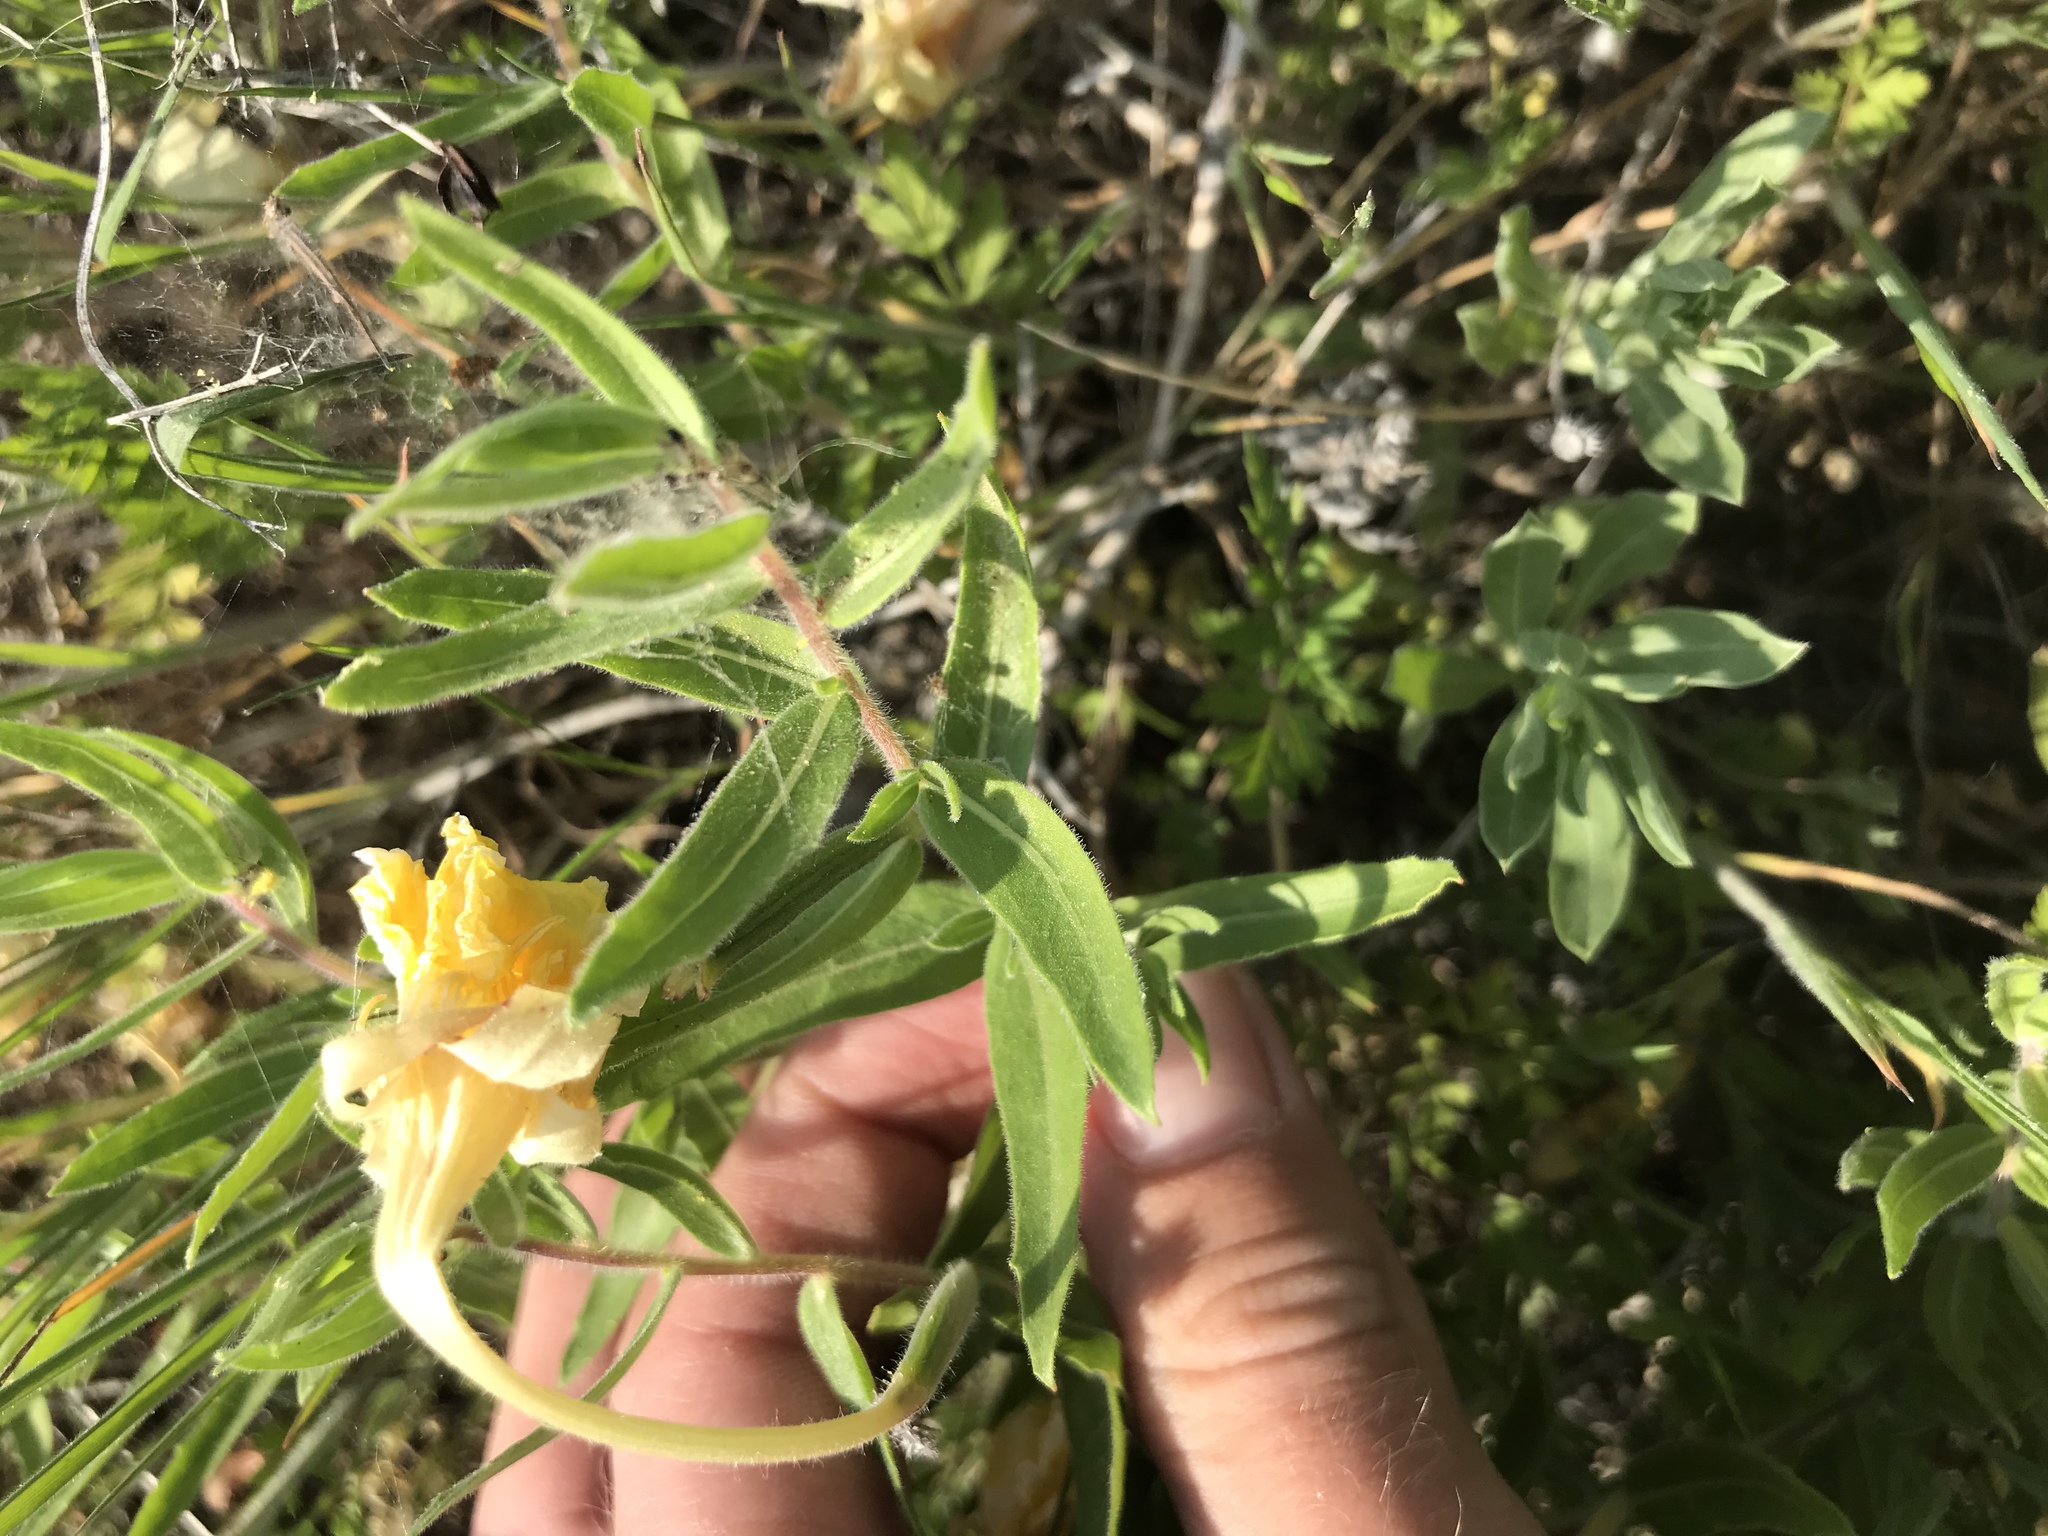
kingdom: Plantae
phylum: Tracheophyta
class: Magnoliopsida
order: Myrtales
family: Onagraceae
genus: Oenothera
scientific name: Oenothera hartwegii
